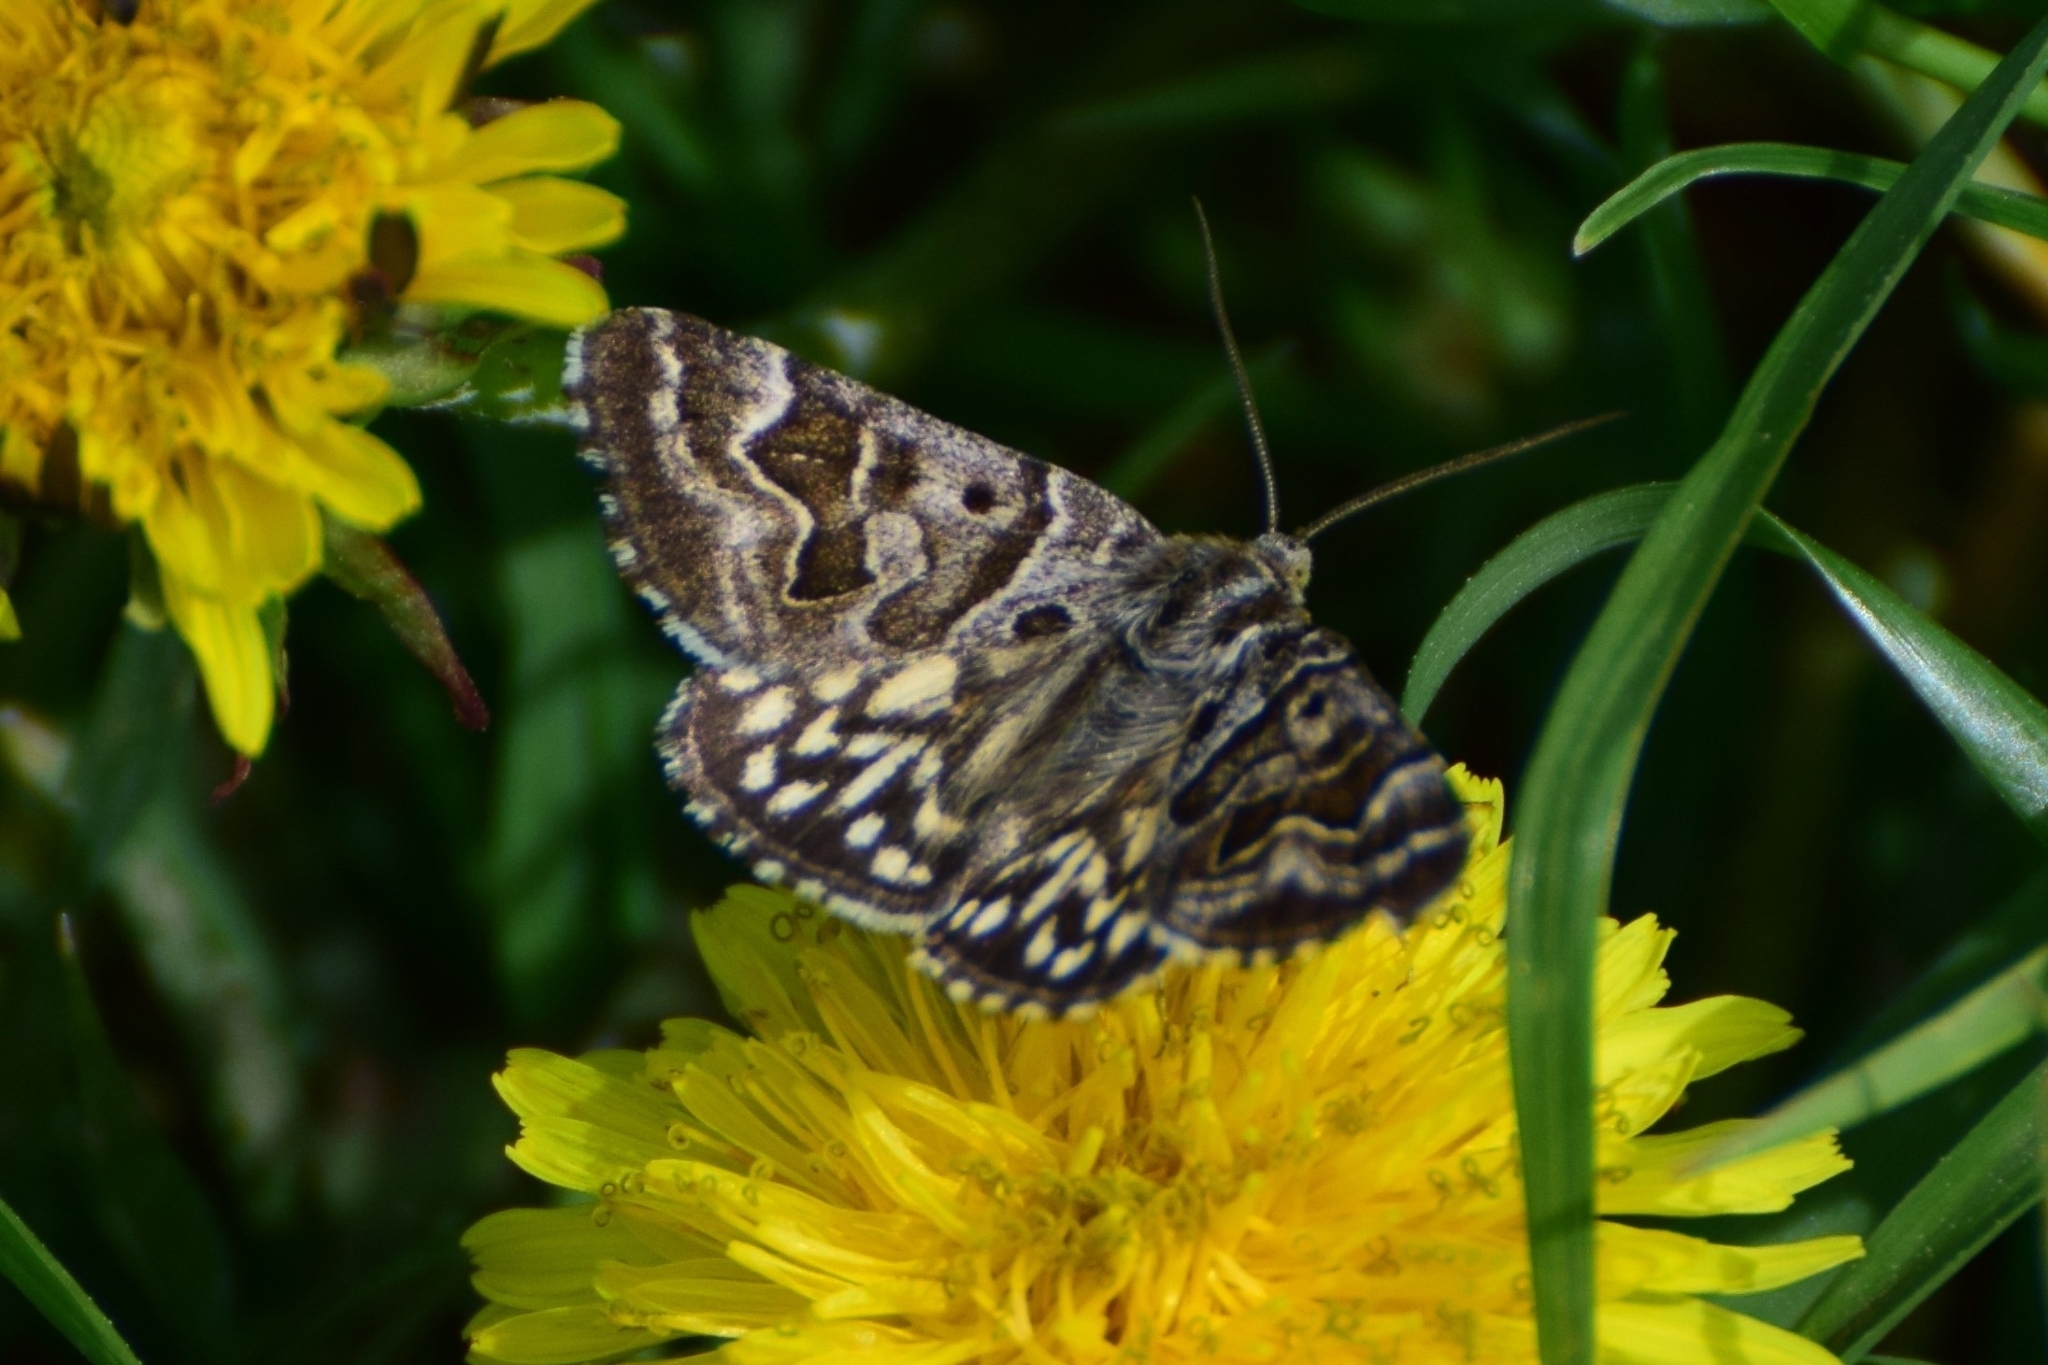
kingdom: Animalia
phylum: Arthropoda
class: Insecta
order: Lepidoptera
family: Erebidae
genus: Callistege
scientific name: Callistege mi
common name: Mother shipton
